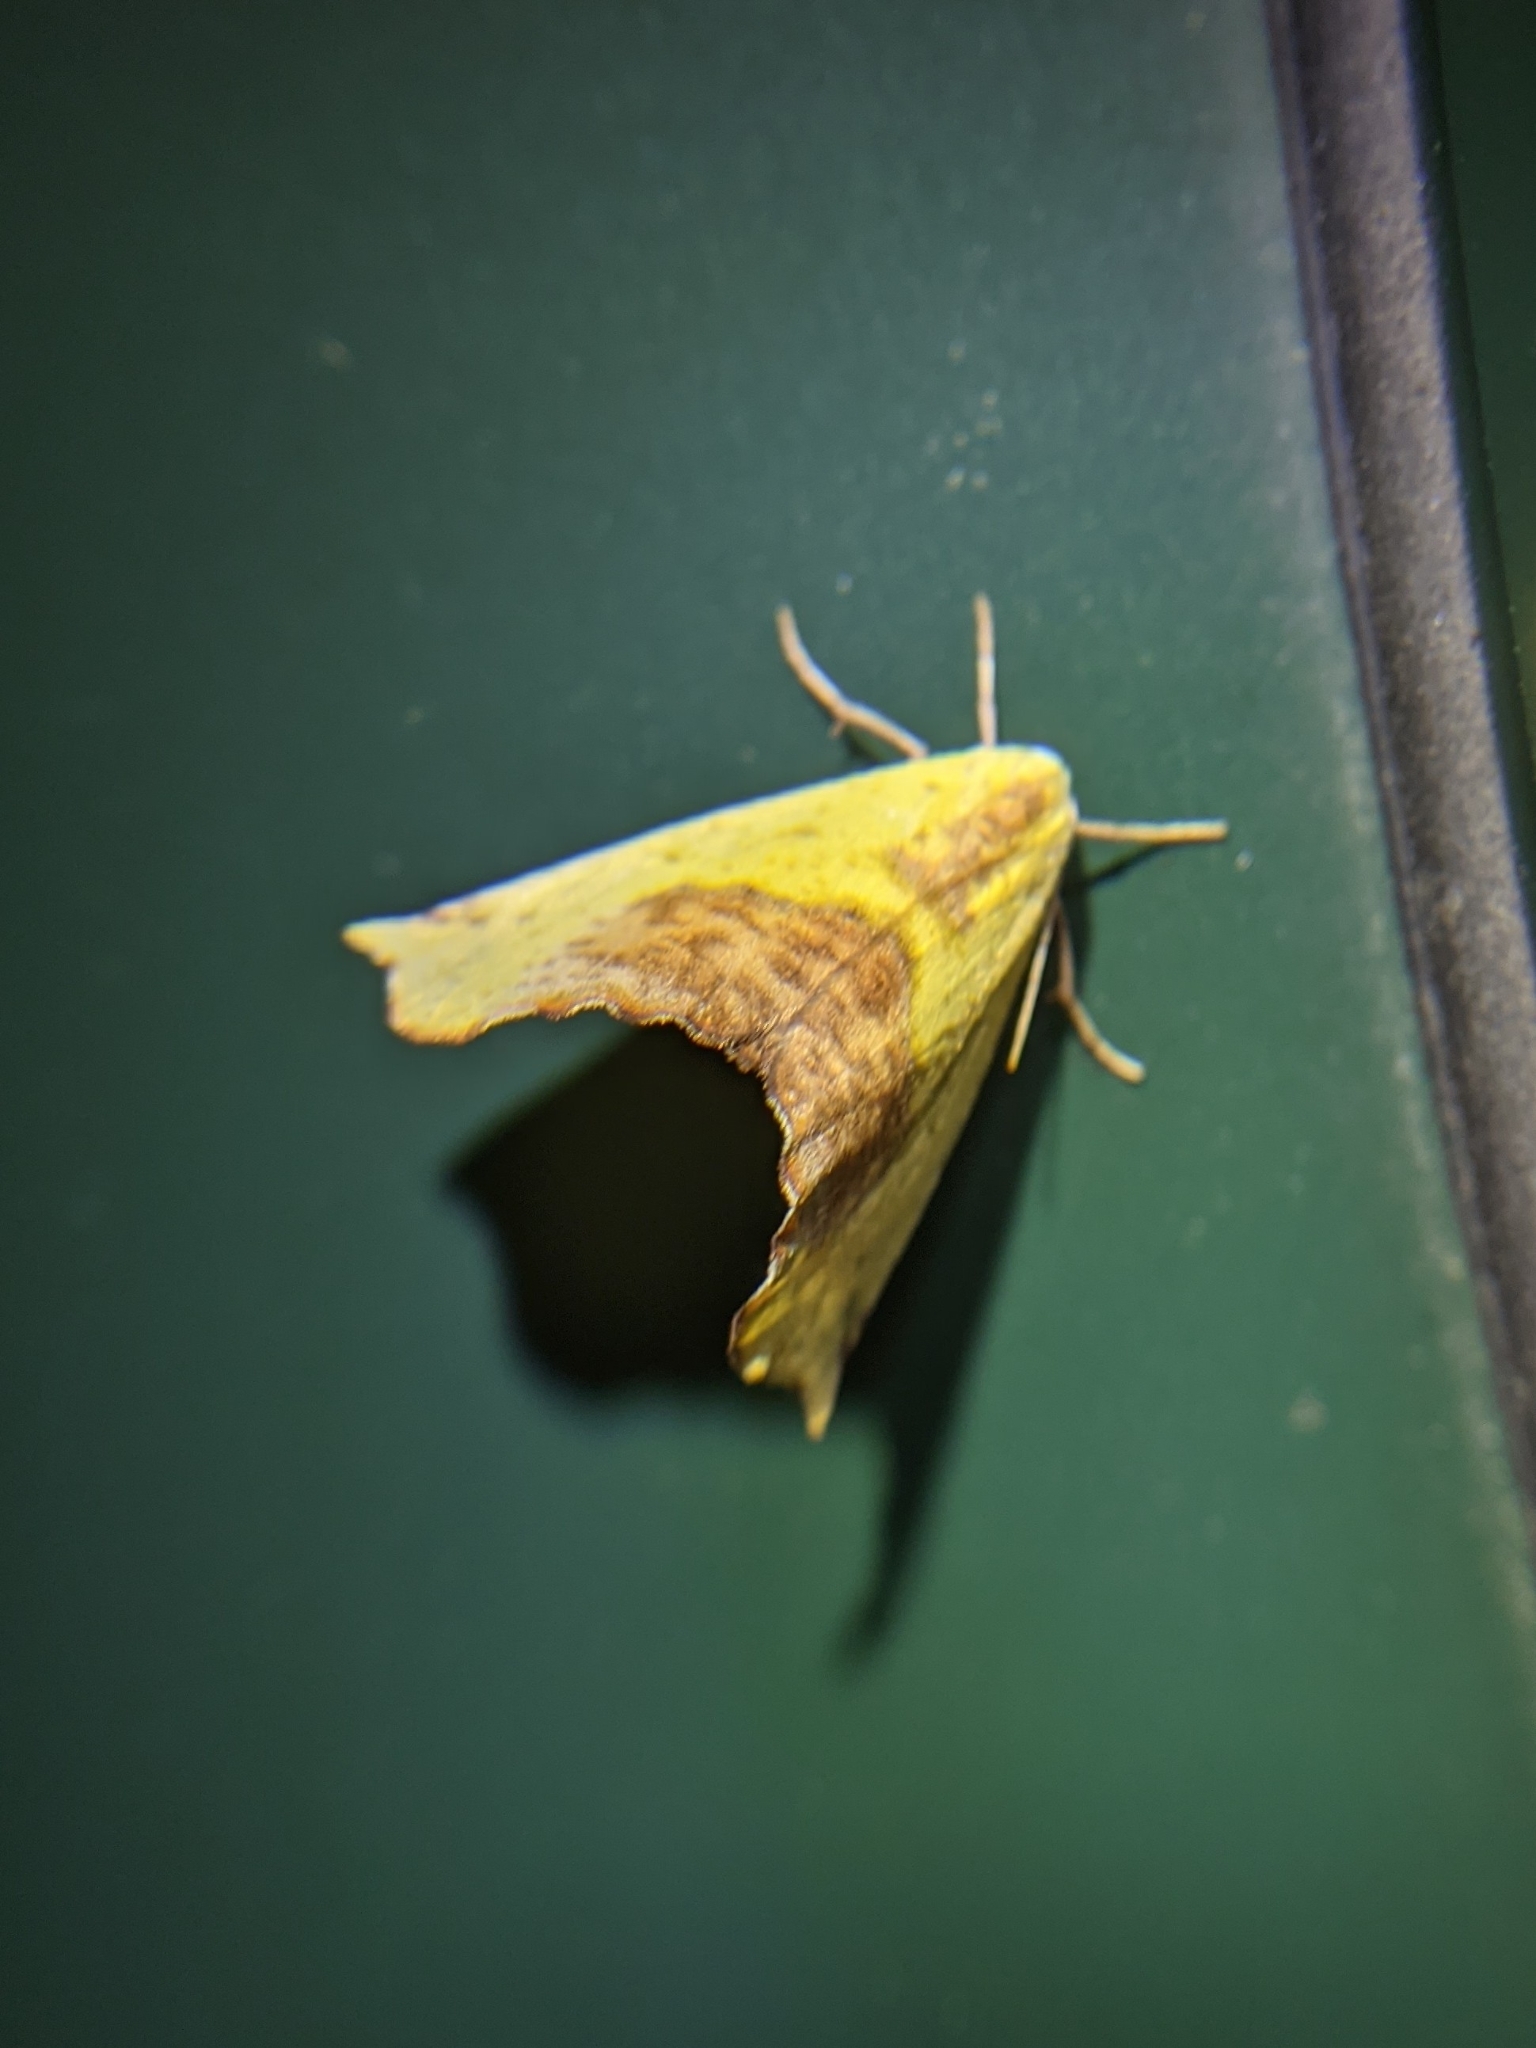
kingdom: Animalia
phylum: Arthropoda
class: Insecta
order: Lepidoptera
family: Geometridae
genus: Sicya
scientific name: Sicya macularia
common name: Sharp-lined yellow
